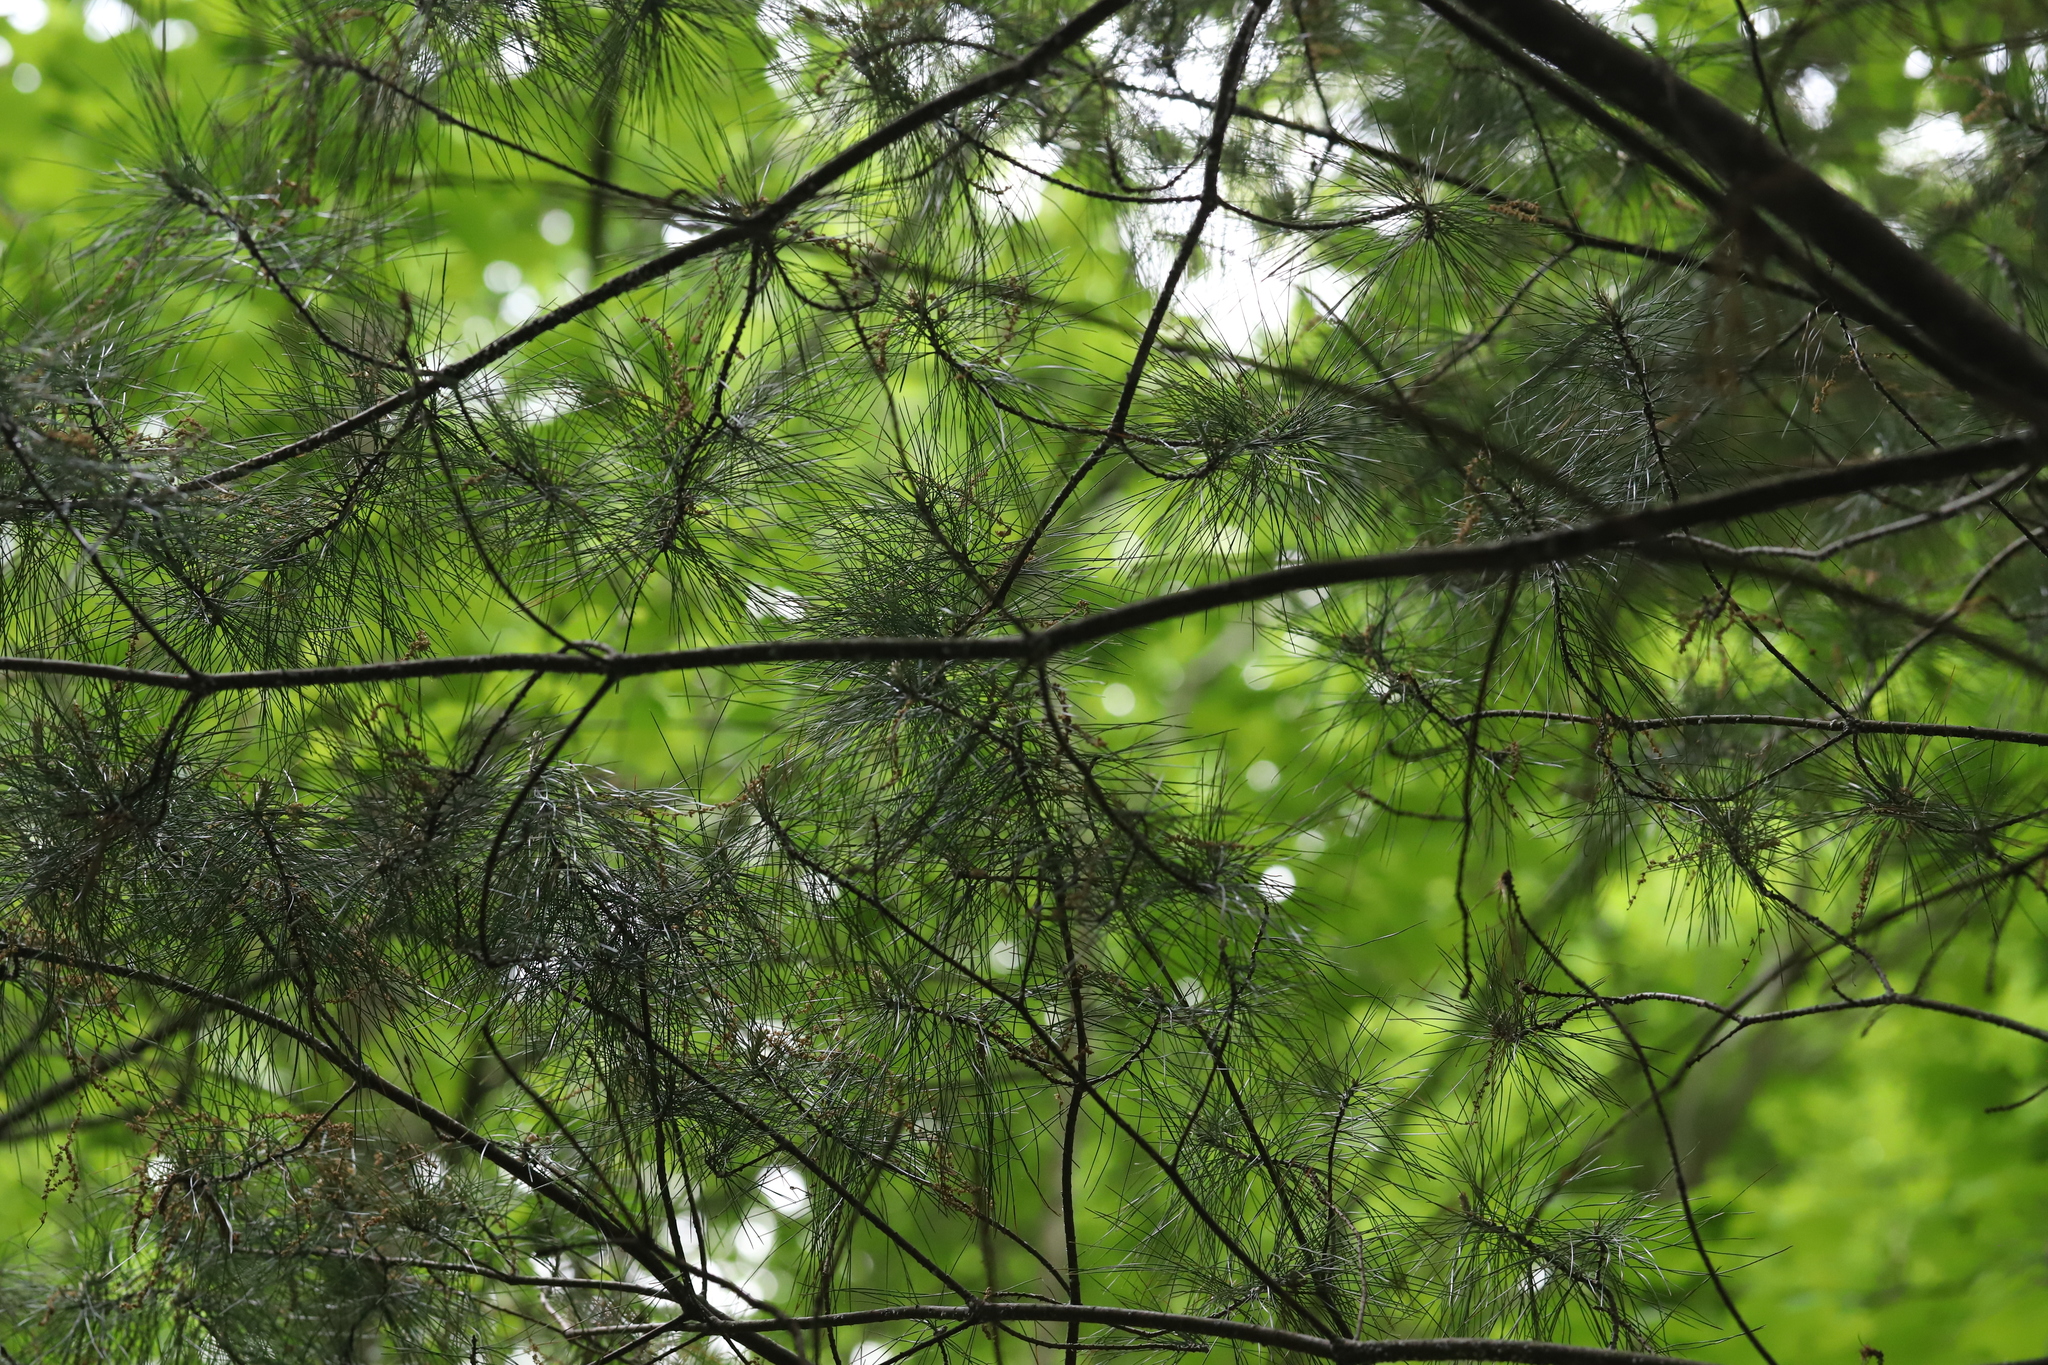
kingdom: Plantae
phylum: Tracheophyta
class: Pinopsida
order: Pinales
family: Pinaceae
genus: Pinus
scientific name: Pinus strobus
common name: Weymouth pine
